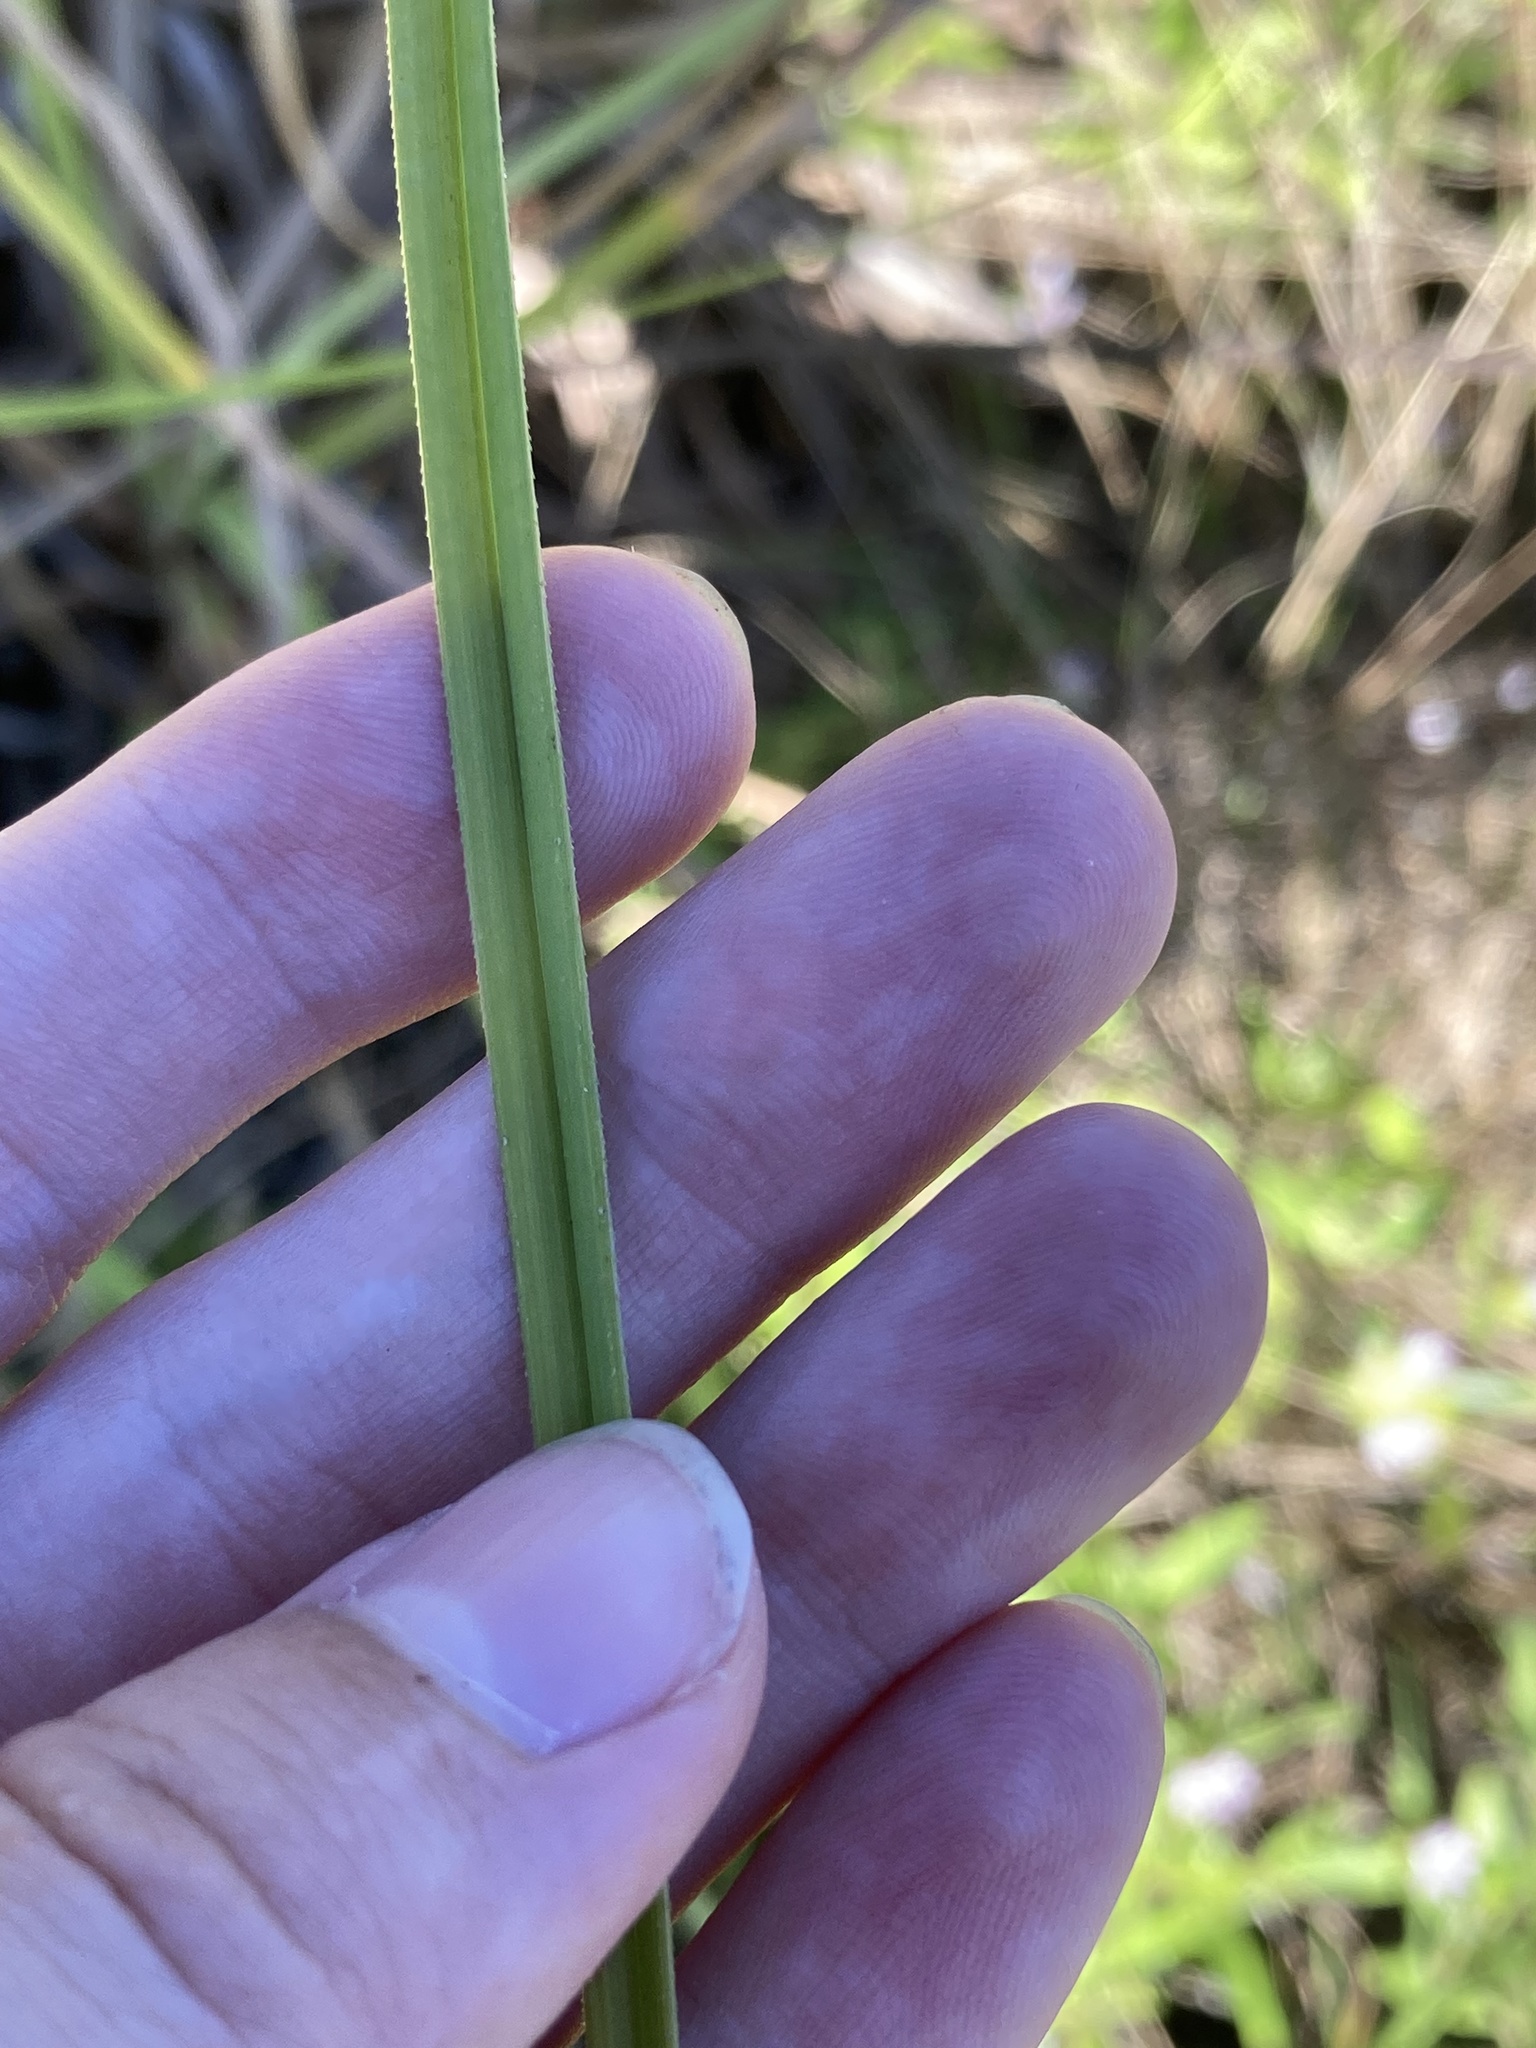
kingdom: Plantae
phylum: Tracheophyta
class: Liliopsida
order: Poales
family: Cyperaceae
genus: Cyperus
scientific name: Cyperus ligularis
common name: Swamp flat sedge
